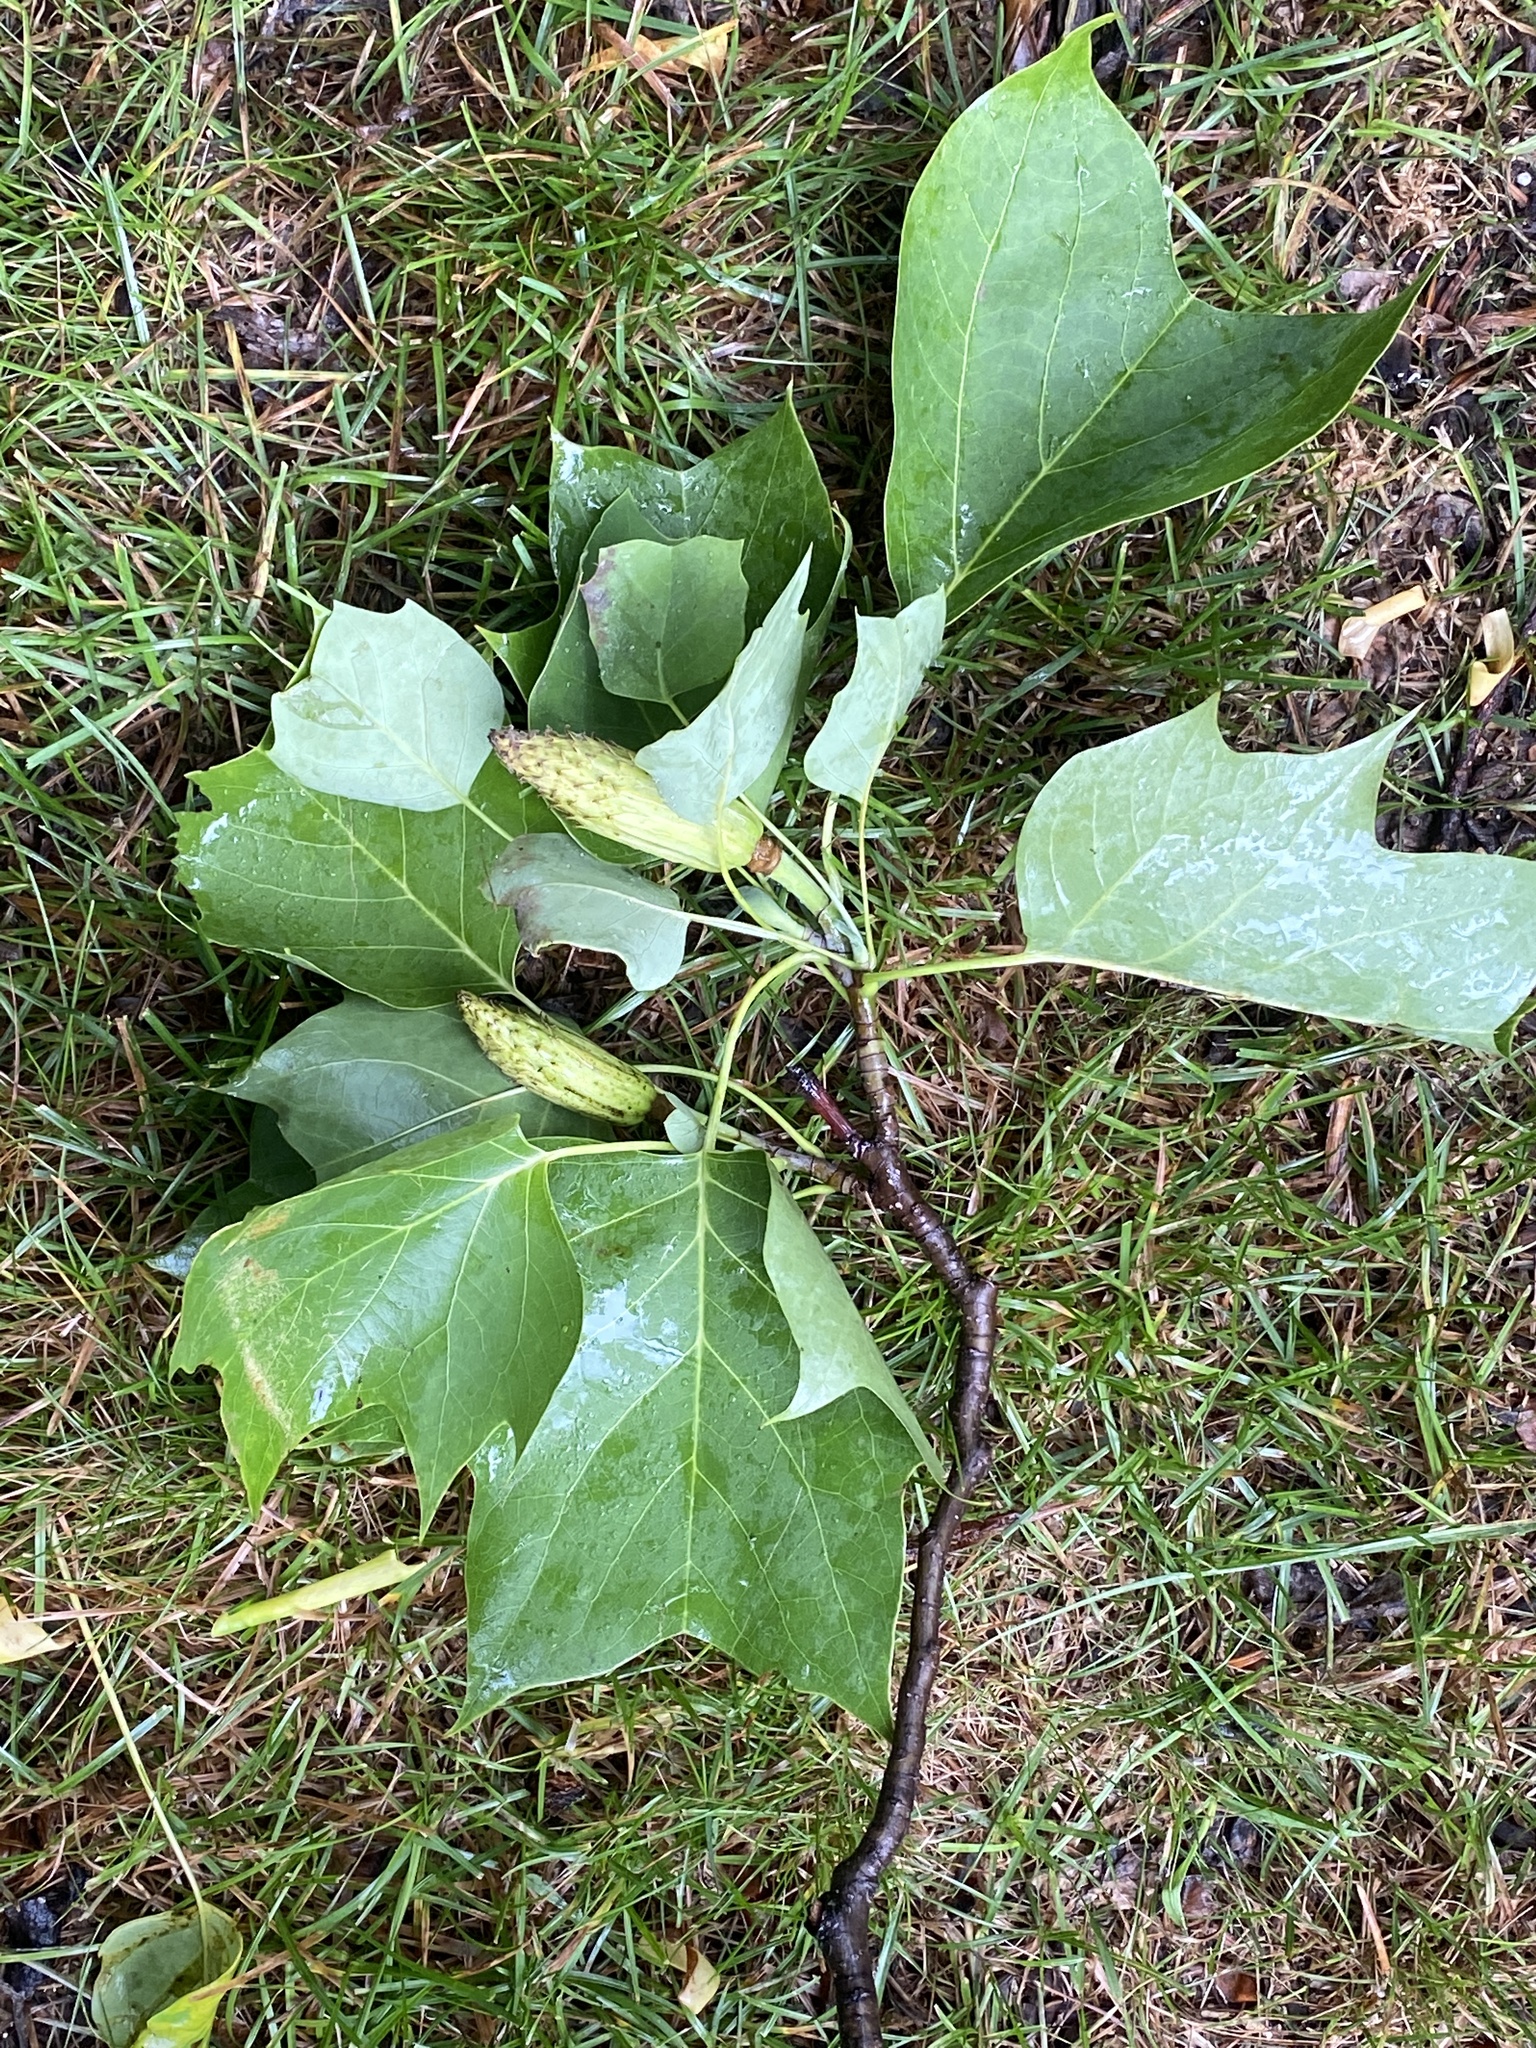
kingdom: Plantae
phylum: Tracheophyta
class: Magnoliopsida
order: Magnoliales
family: Magnoliaceae
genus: Liriodendron
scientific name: Liriodendron tulipifera
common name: Tulip tree
